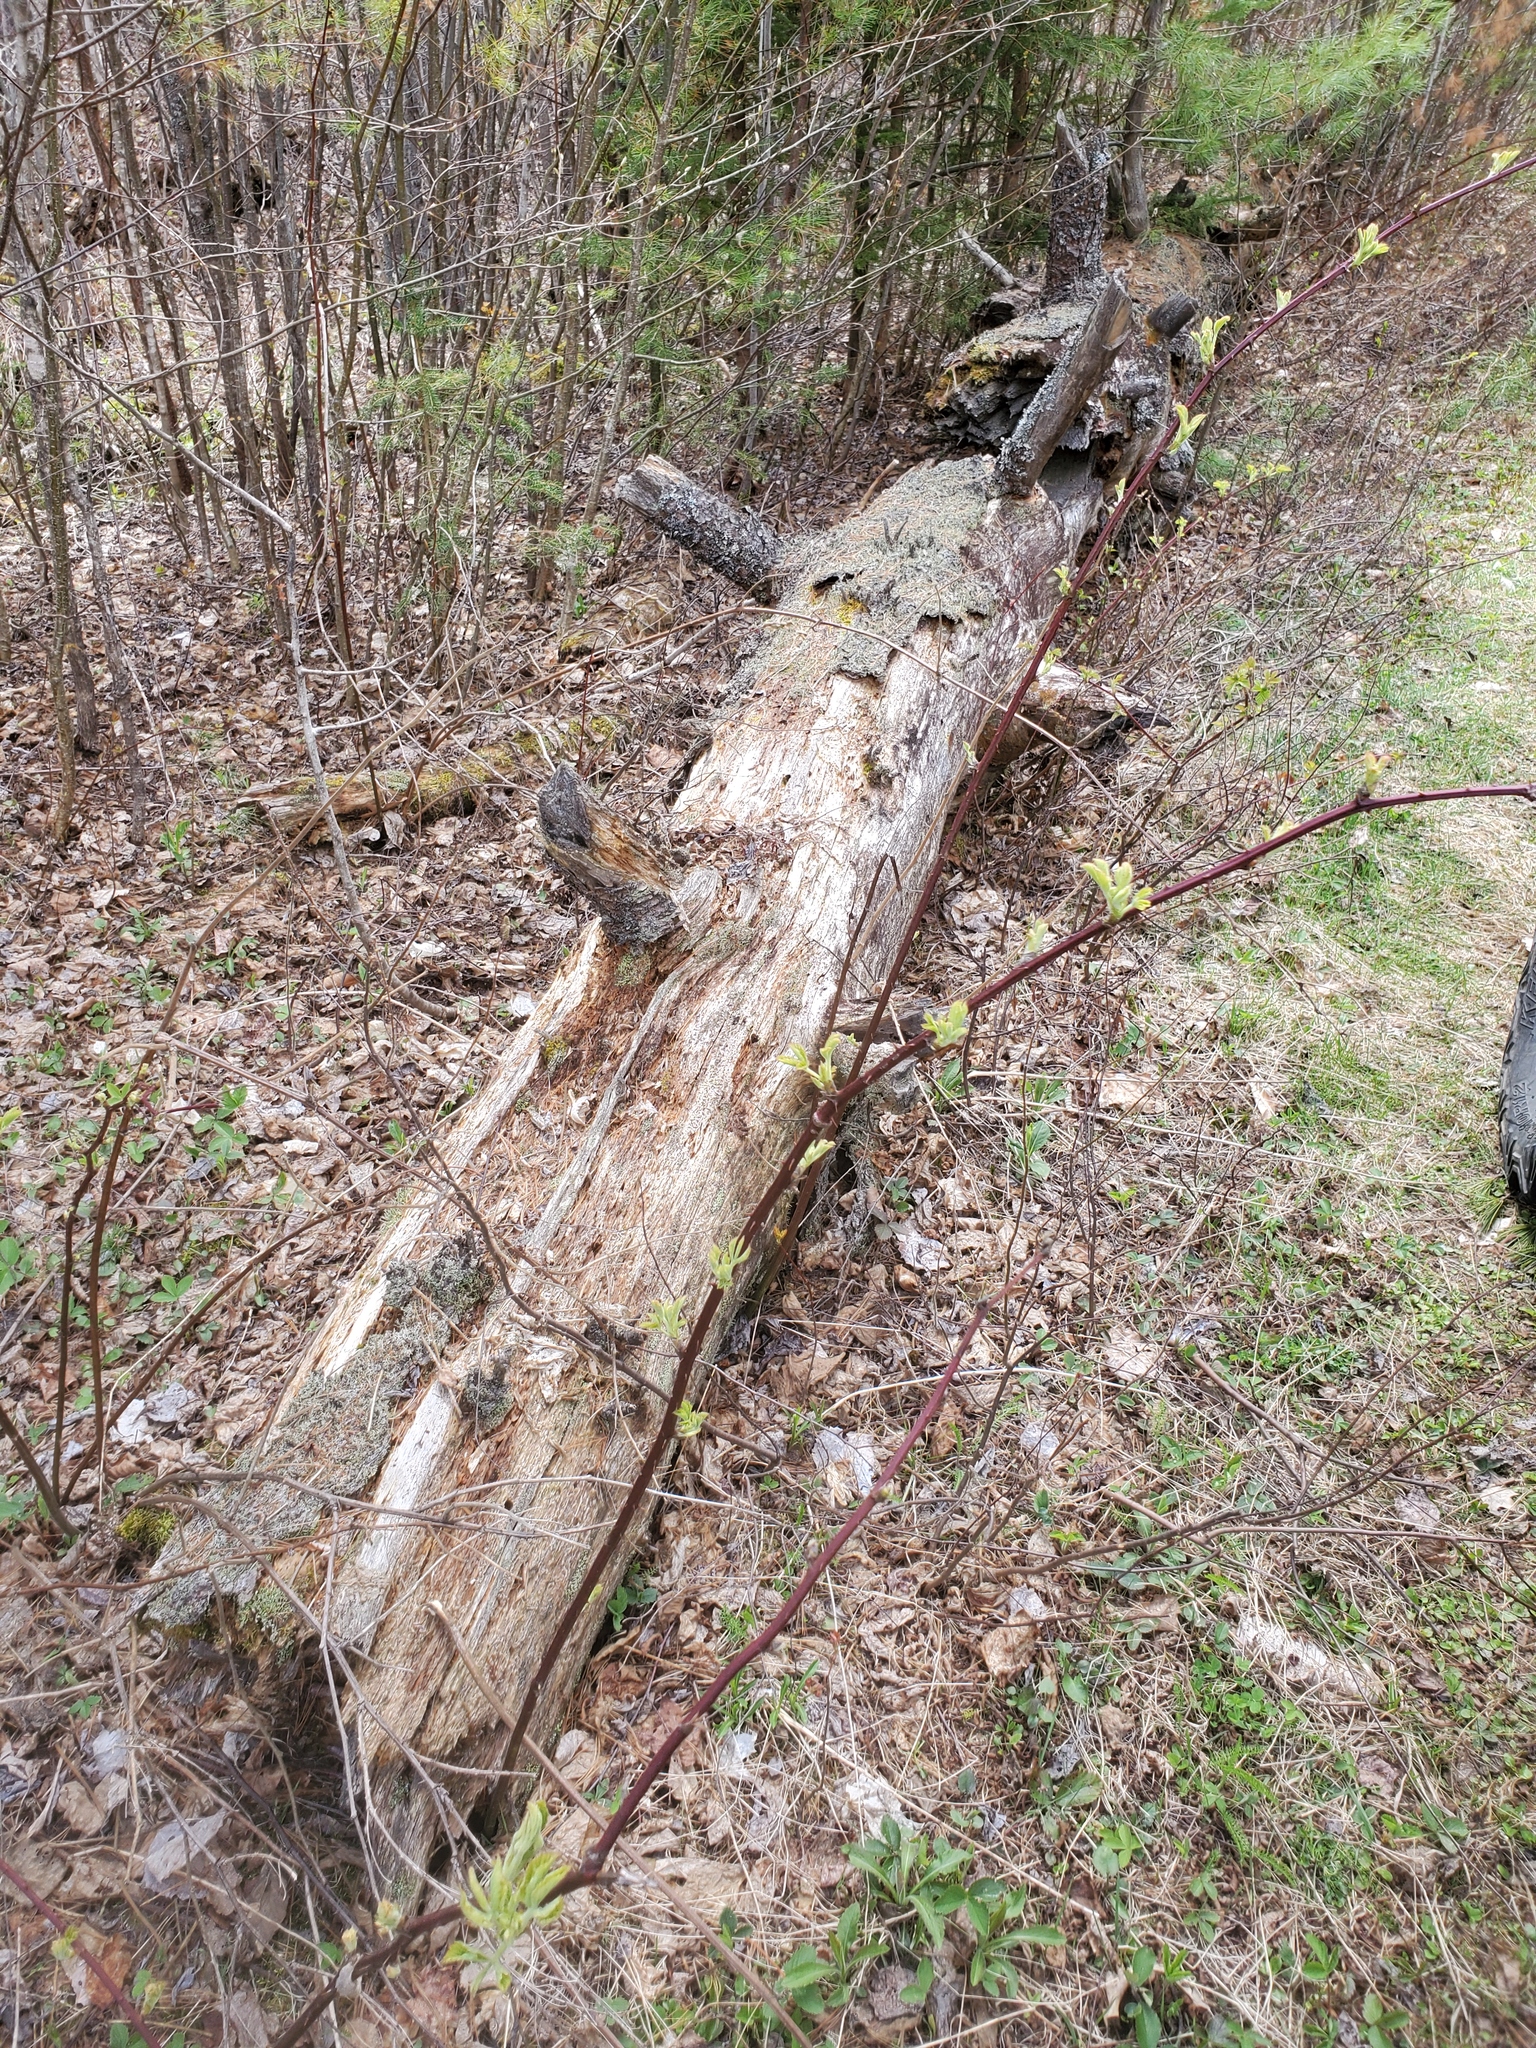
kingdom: Plantae
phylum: Tracheophyta
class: Pinopsida
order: Pinales
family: Pinaceae
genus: Pinus
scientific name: Pinus strobus
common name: Weymouth pine
